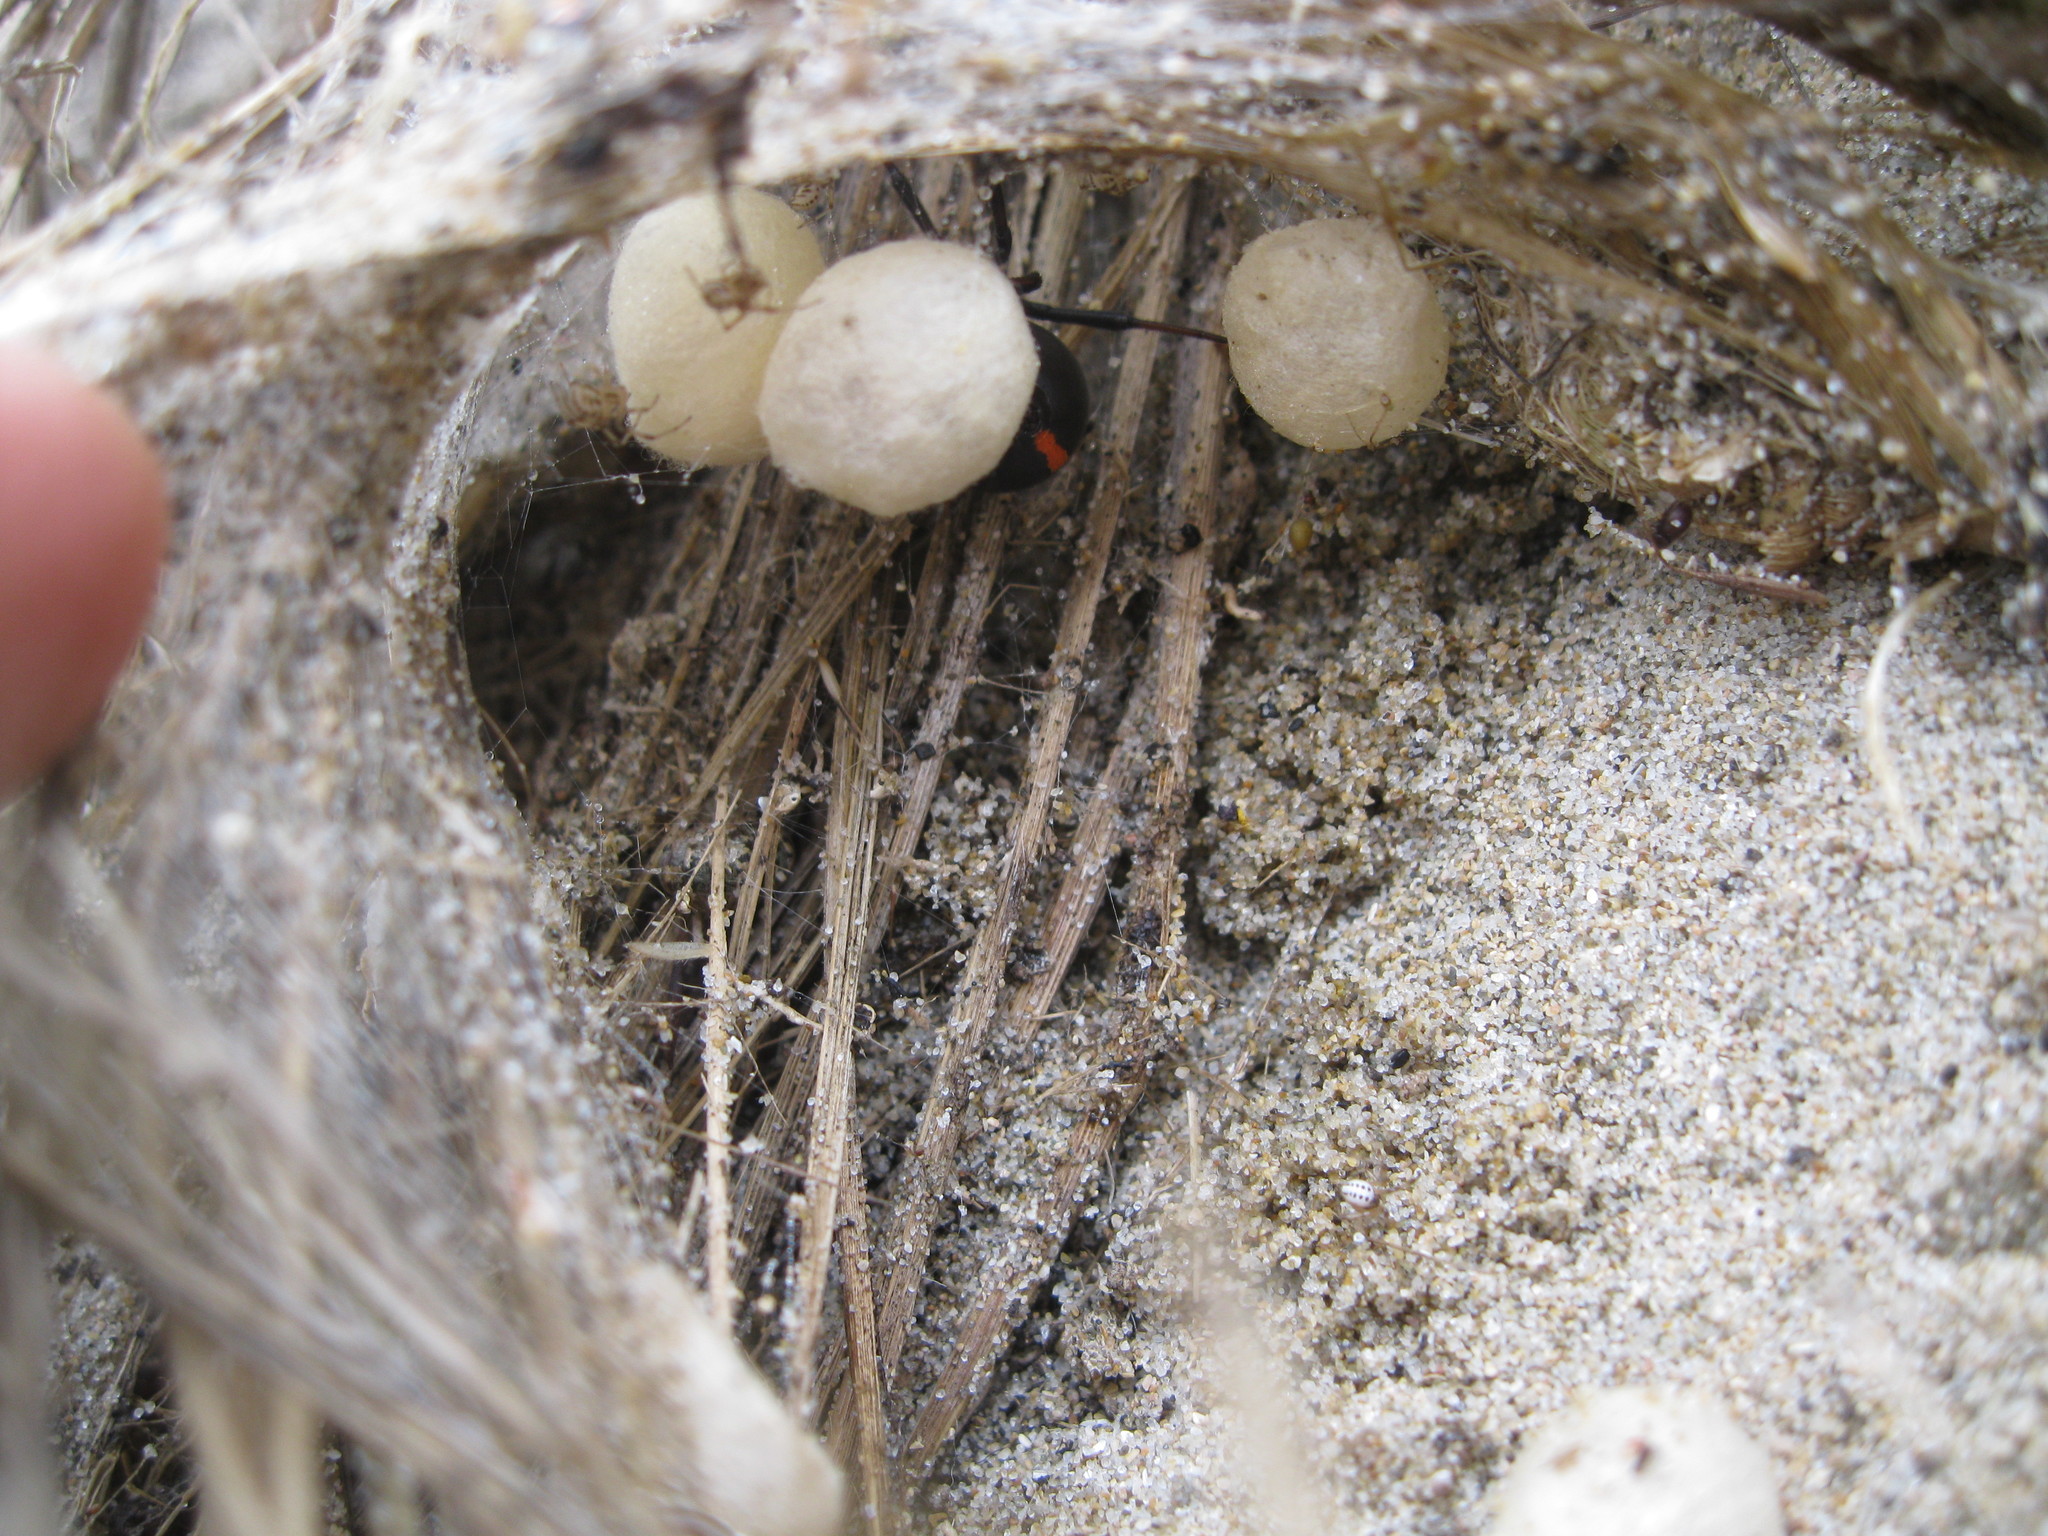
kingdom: Animalia
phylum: Arthropoda
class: Arachnida
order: Araneae
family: Theridiidae
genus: Latrodectus
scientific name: Latrodectus katipo
